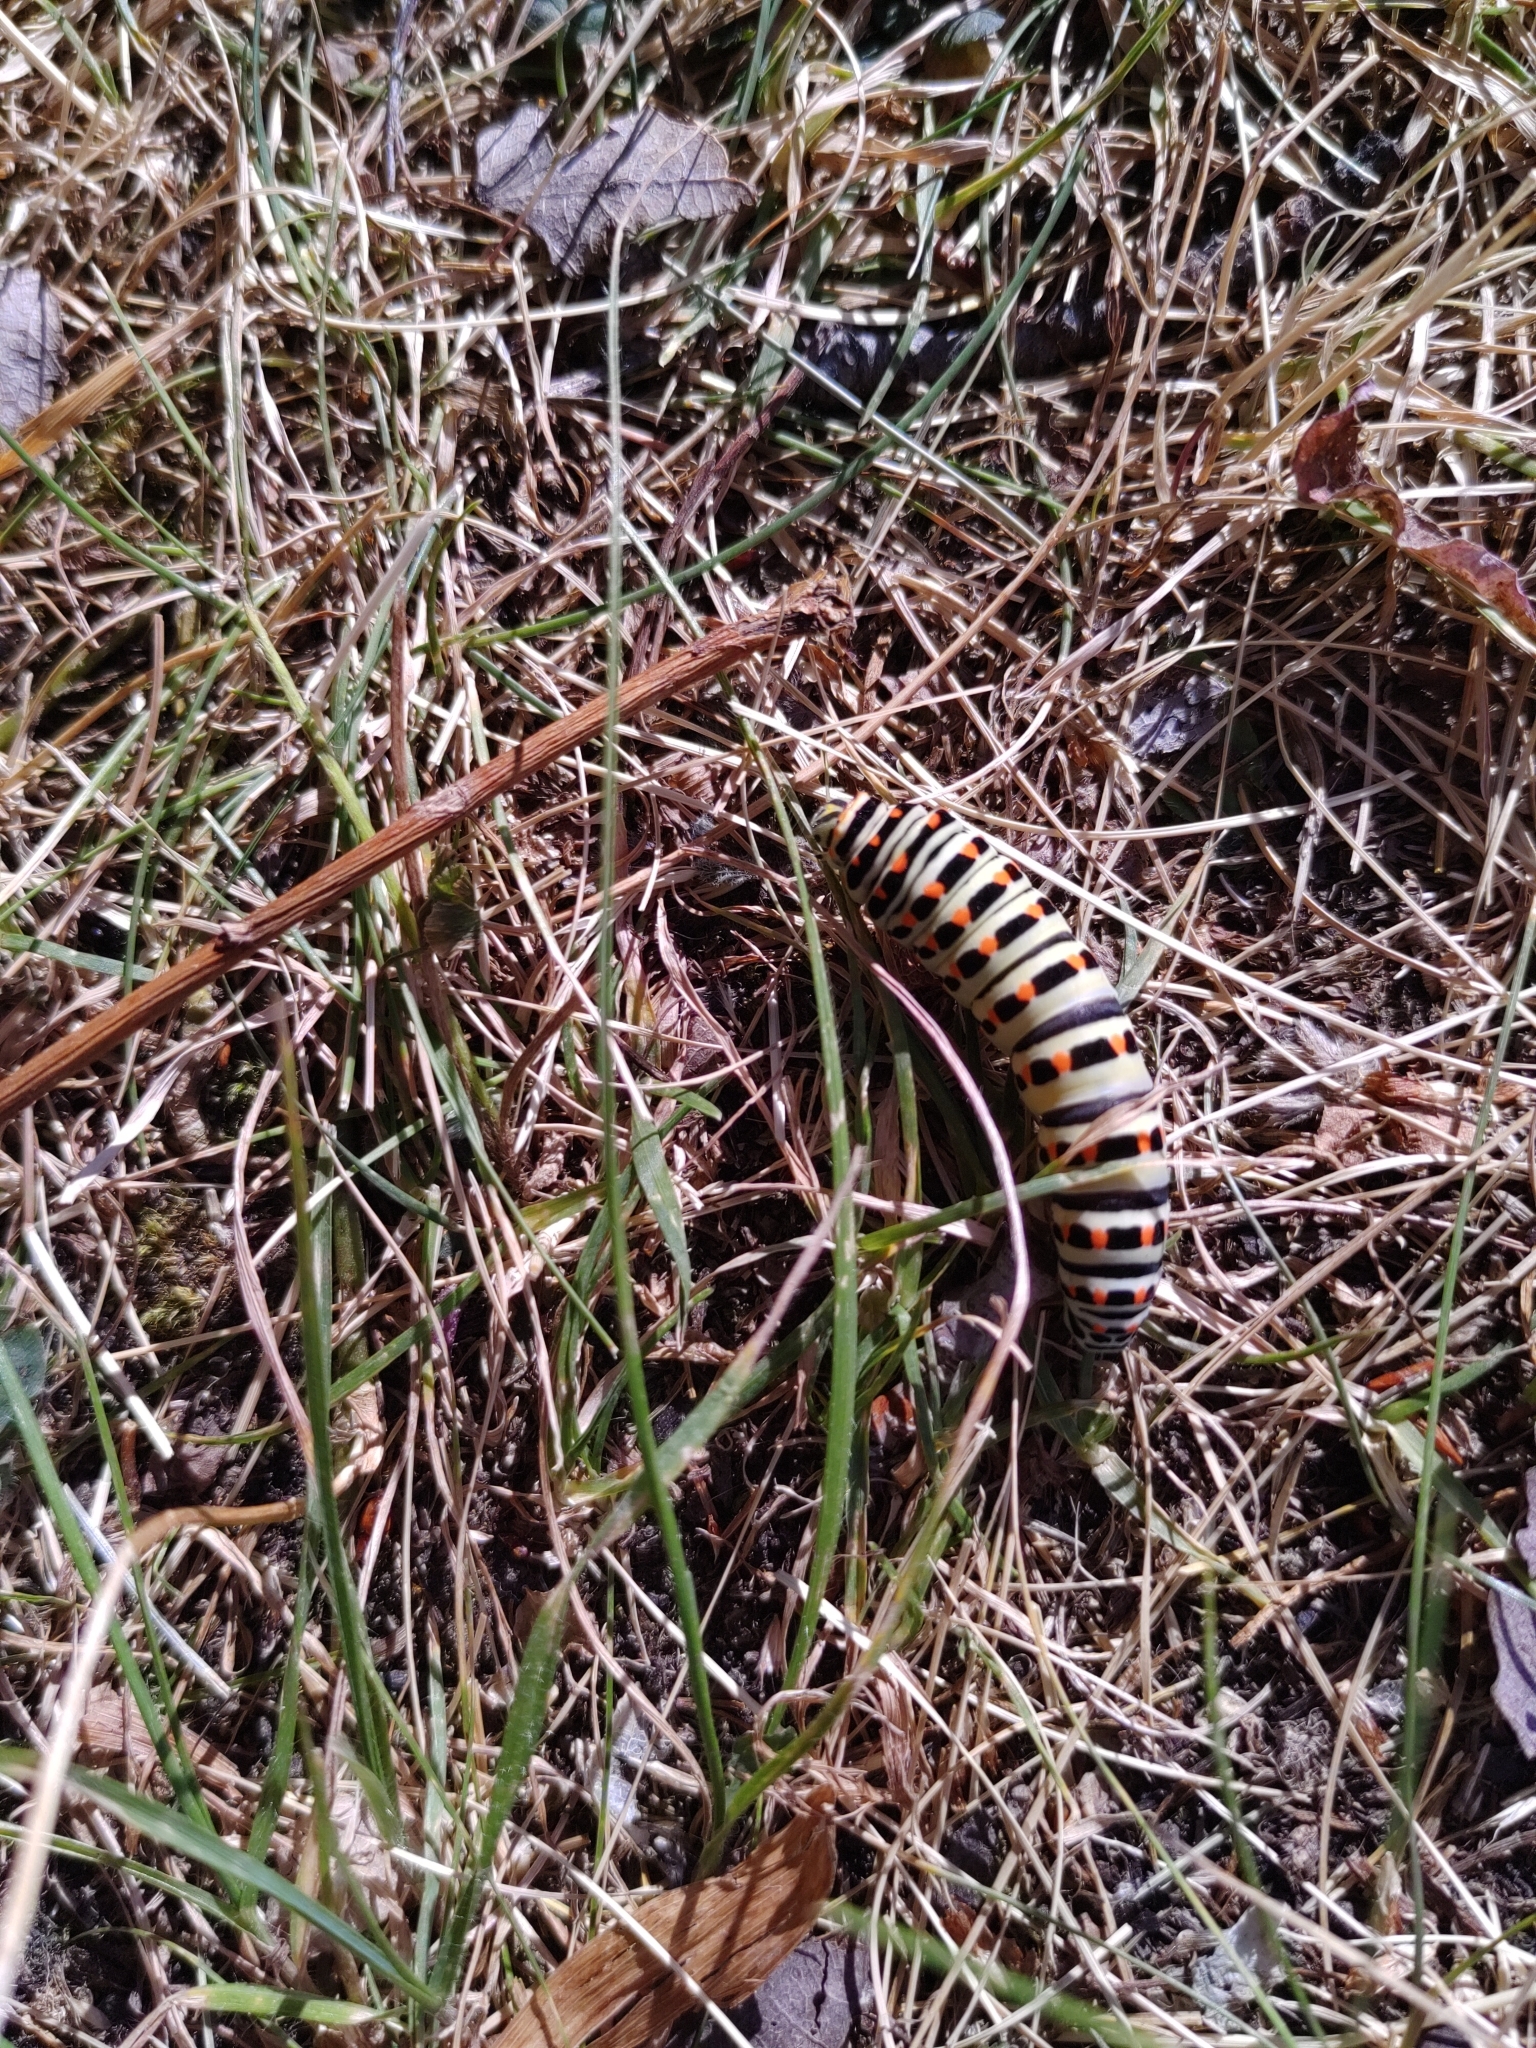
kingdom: Animalia
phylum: Arthropoda
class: Insecta
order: Lepidoptera
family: Papilionidae
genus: Papilio
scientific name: Papilio machaon
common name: Swallowtail
